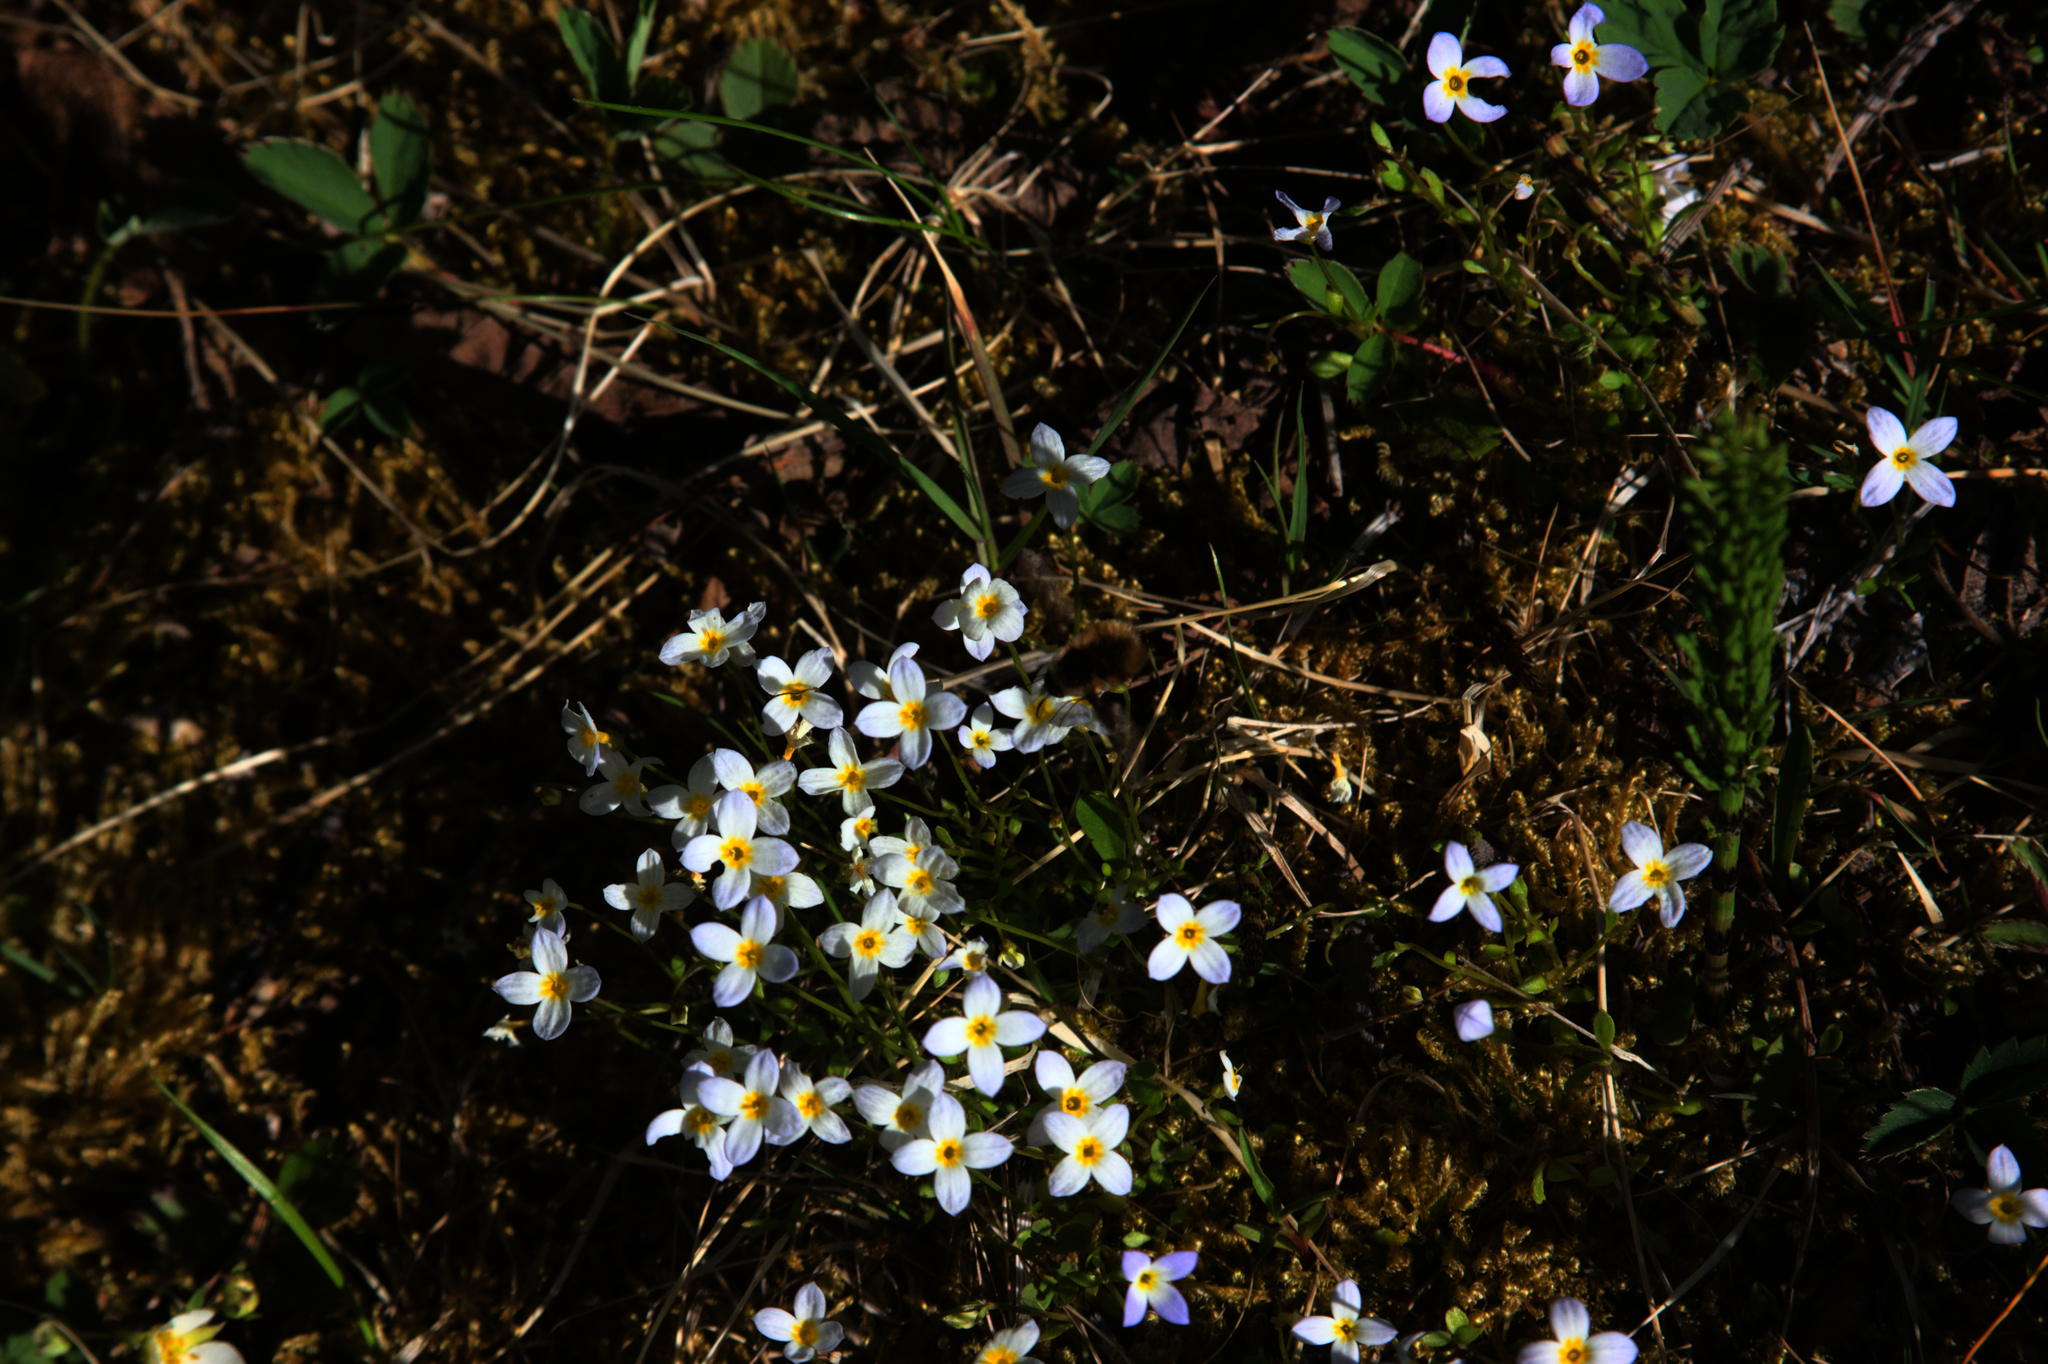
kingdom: Plantae
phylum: Tracheophyta
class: Magnoliopsida
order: Gentianales
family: Rubiaceae
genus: Houstonia
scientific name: Houstonia caerulea
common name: Bluets
